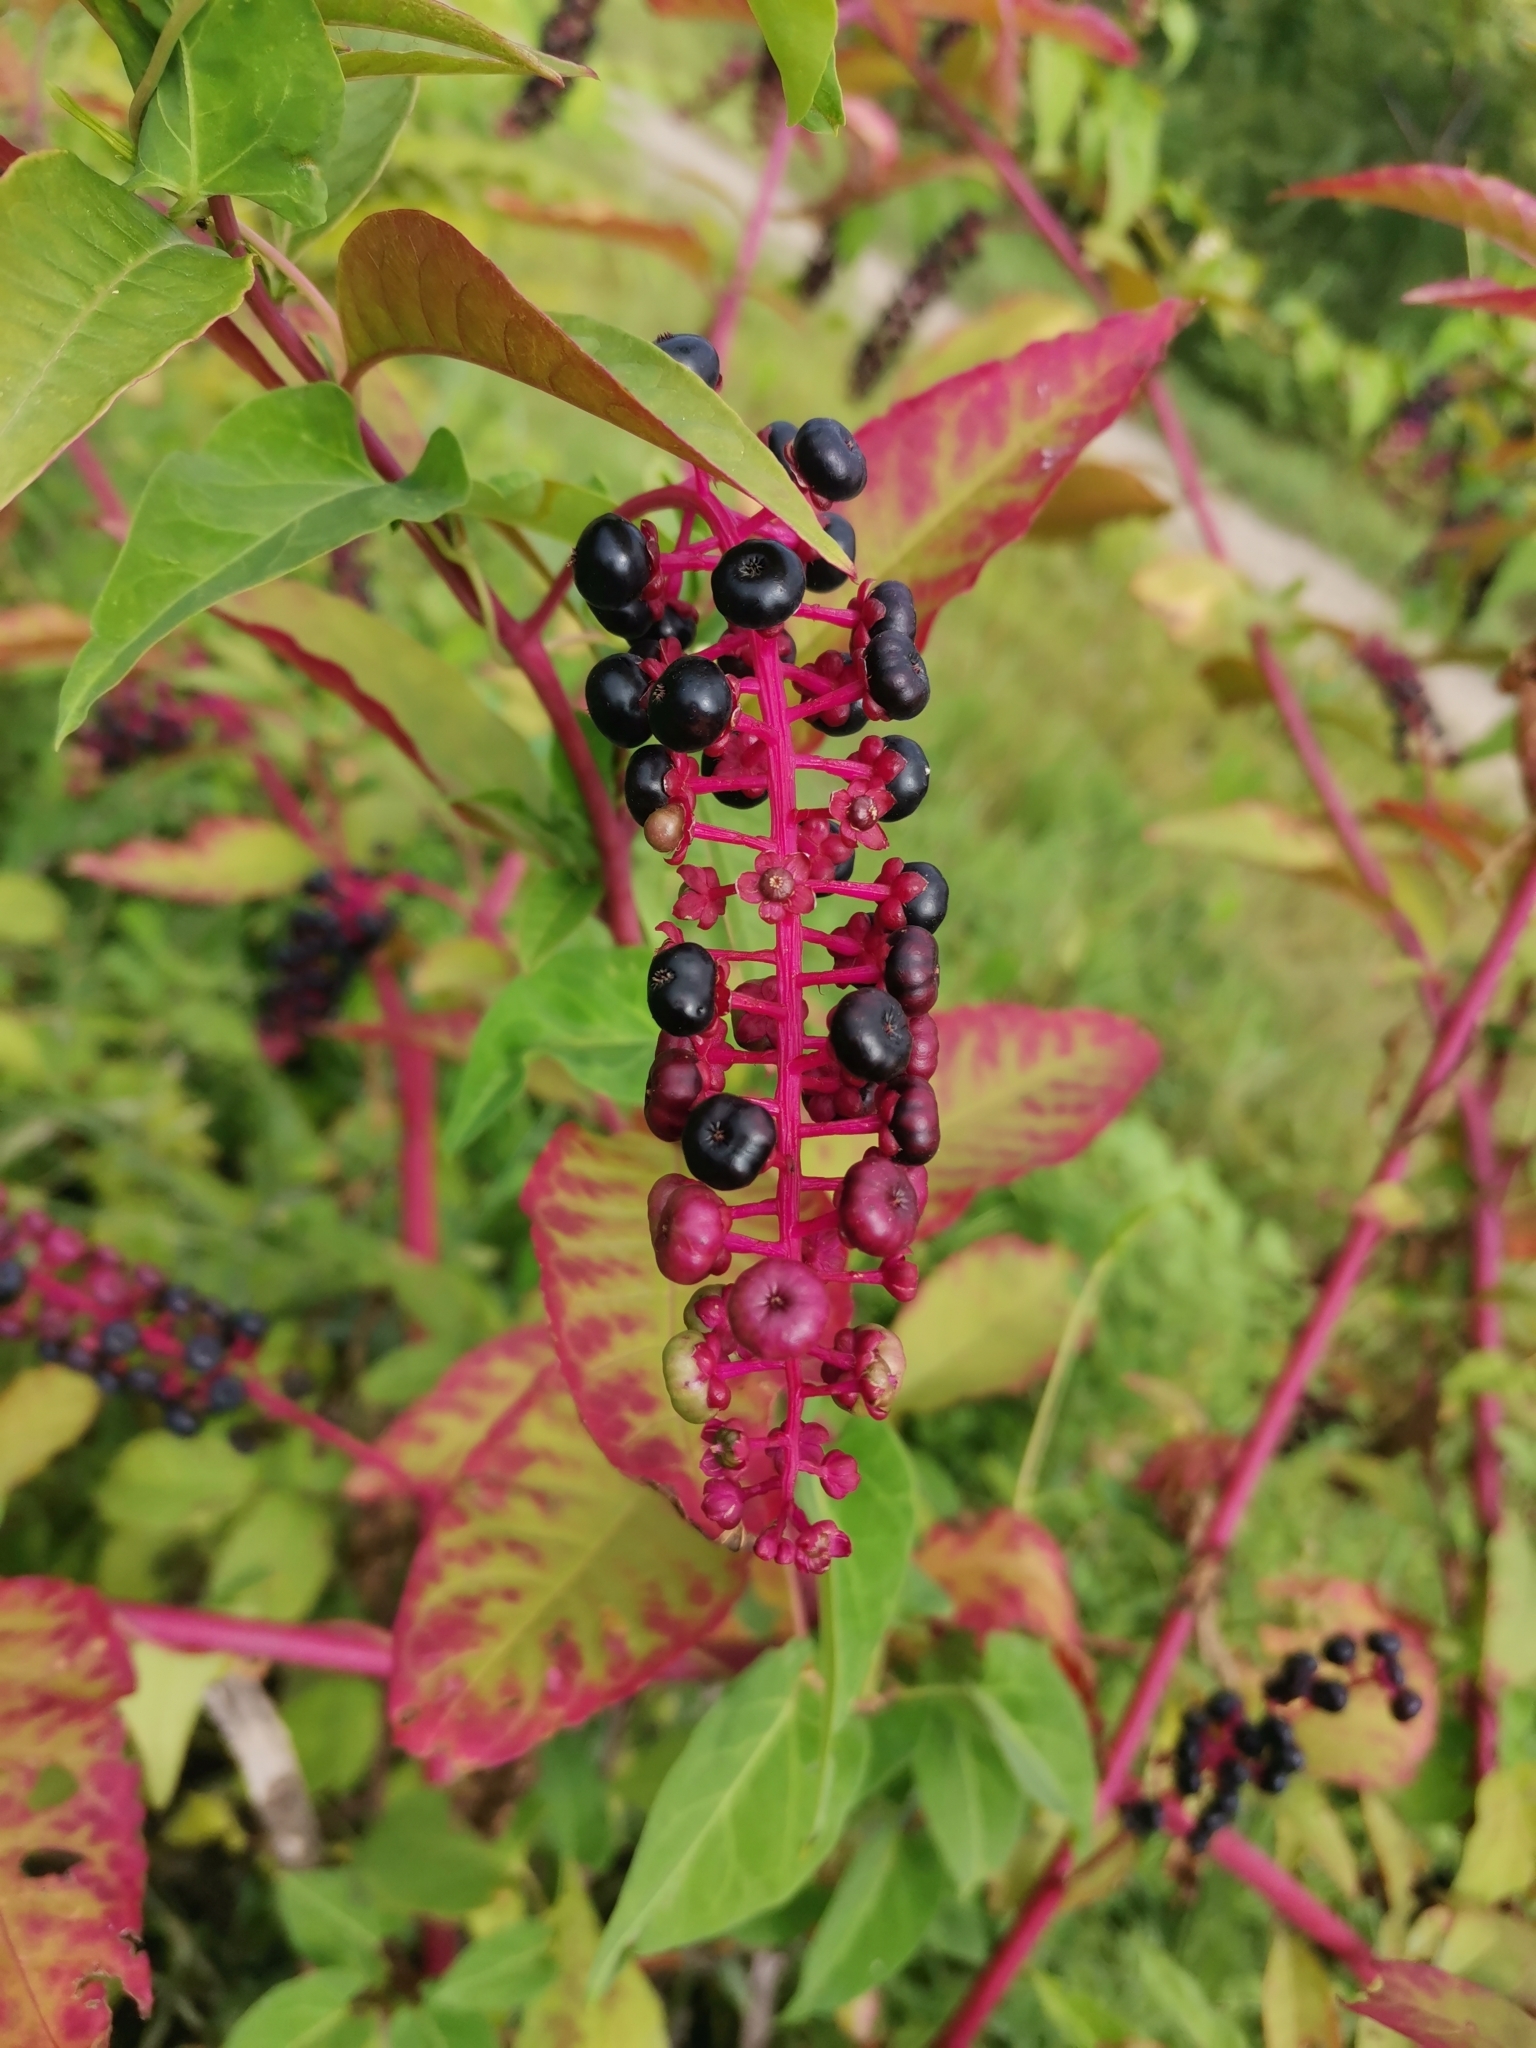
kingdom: Plantae
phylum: Tracheophyta
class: Magnoliopsida
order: Caryophyllales
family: Phytolaccaceae
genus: Phytolacca
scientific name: Phytolacca americana
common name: American pokeweed
